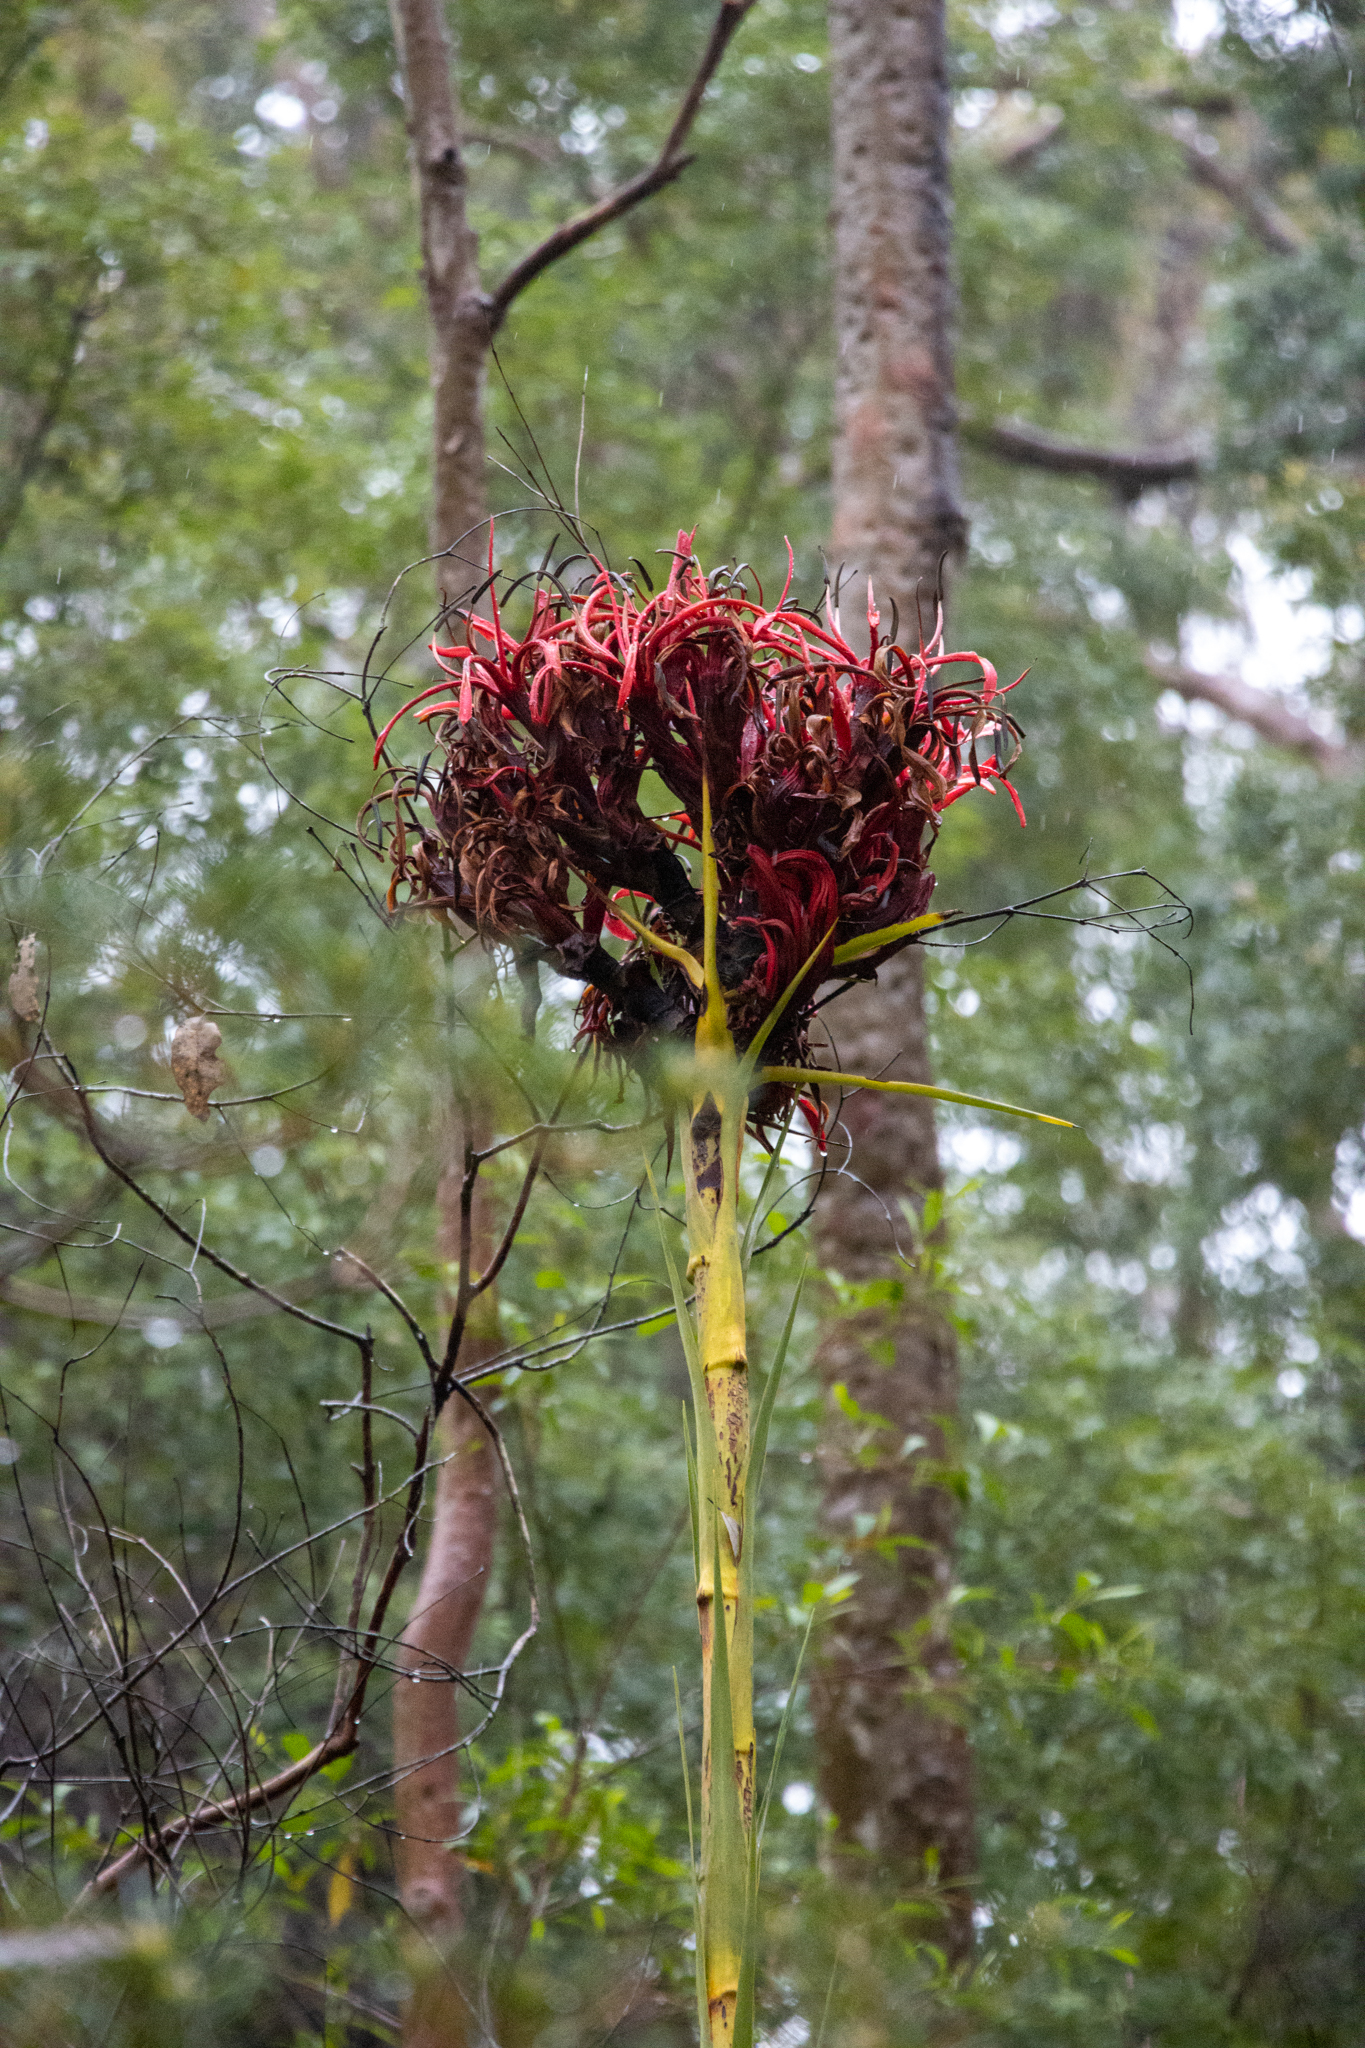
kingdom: Plantae
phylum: Tracheophyta
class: Liliopsida
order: Asparagales
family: Doryanthaceae
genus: Doryanthes
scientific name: Doryanthes excelsa
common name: Giant-lily
